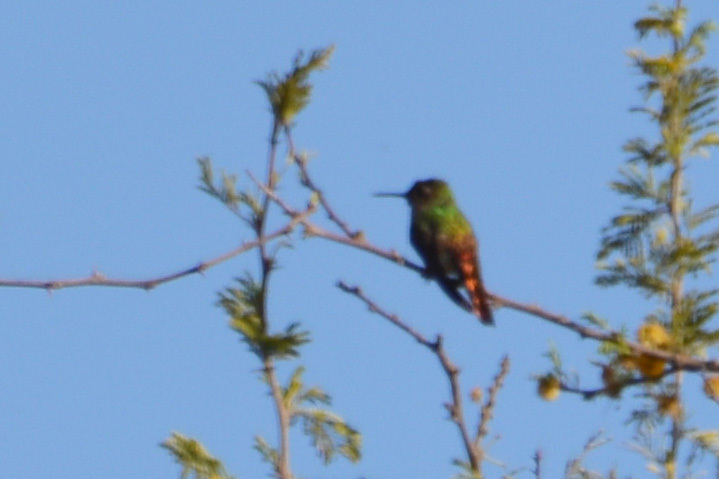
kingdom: Animalia
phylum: Chordata
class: Aves
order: Apodiformes
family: Trochilidae
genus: Sappho
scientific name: Sappho sparganurus
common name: Red-tailed comet
